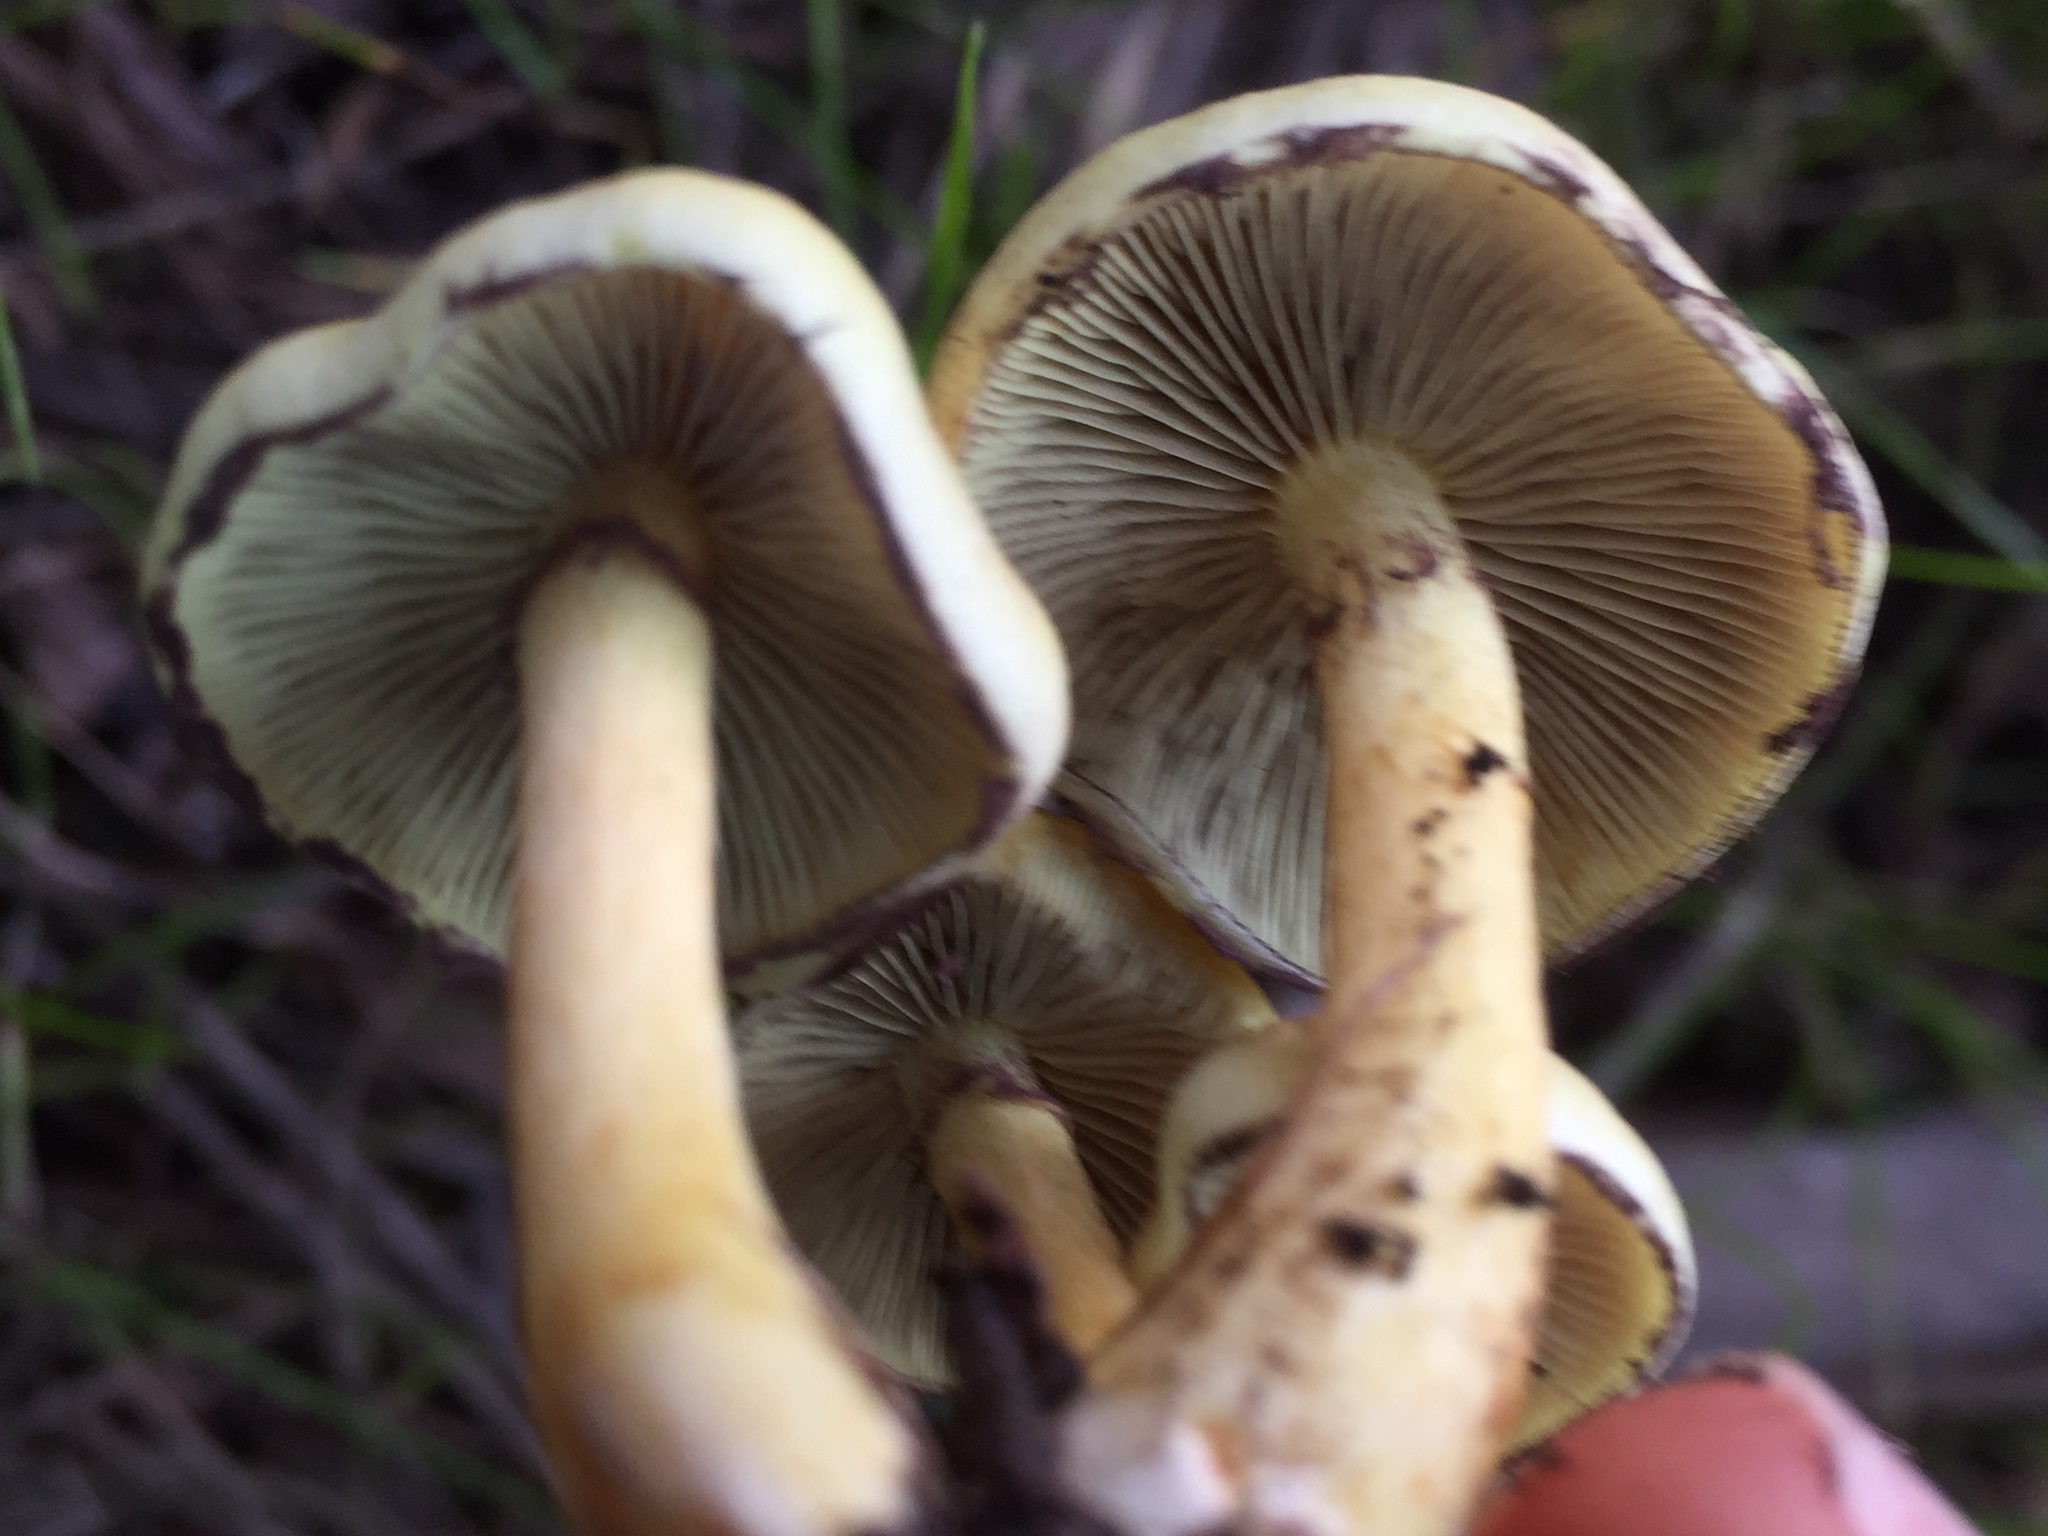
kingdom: Fungi
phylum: Basidiomycota
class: Agaricomycetes
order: Agaricales
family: Strophariaceae
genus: Hypholoma
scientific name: Hypholoma fasciculare
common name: Sulphur tuft
